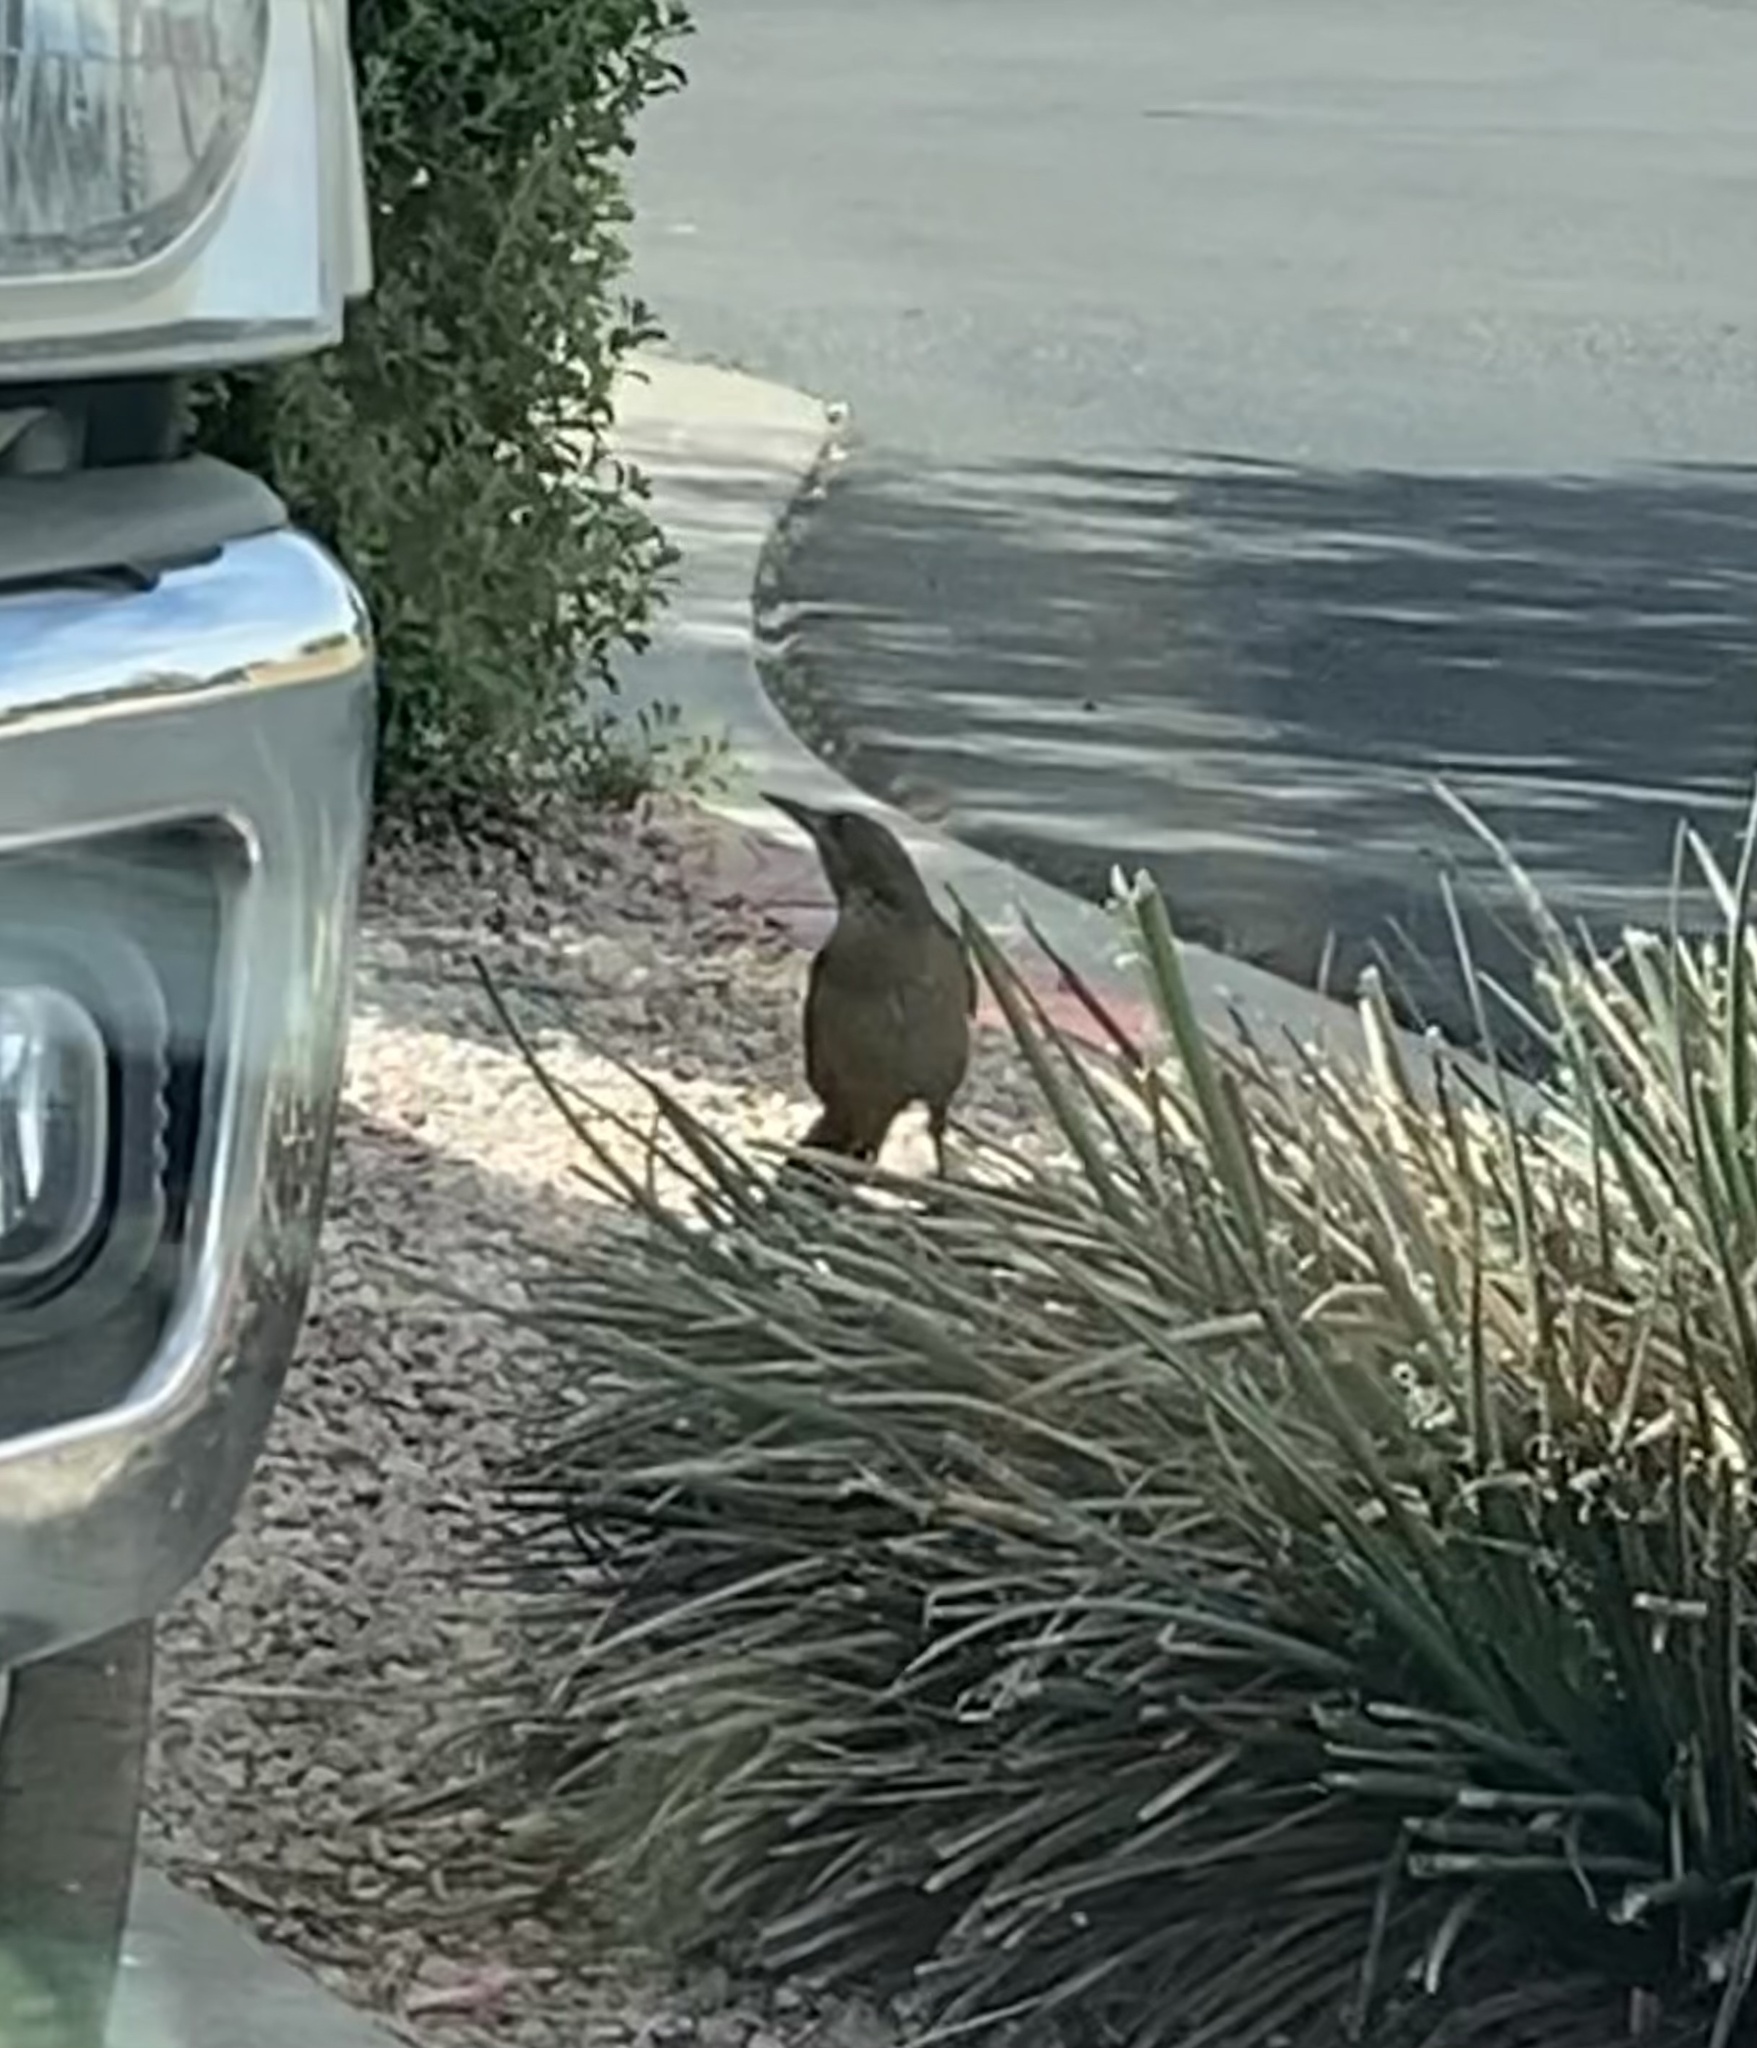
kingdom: Animalia
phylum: Chordata
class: Aves
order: Passeriformes
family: Icteridae
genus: Quiscalus
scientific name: Quiscalus mexicanus
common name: Great-tailed grackle
